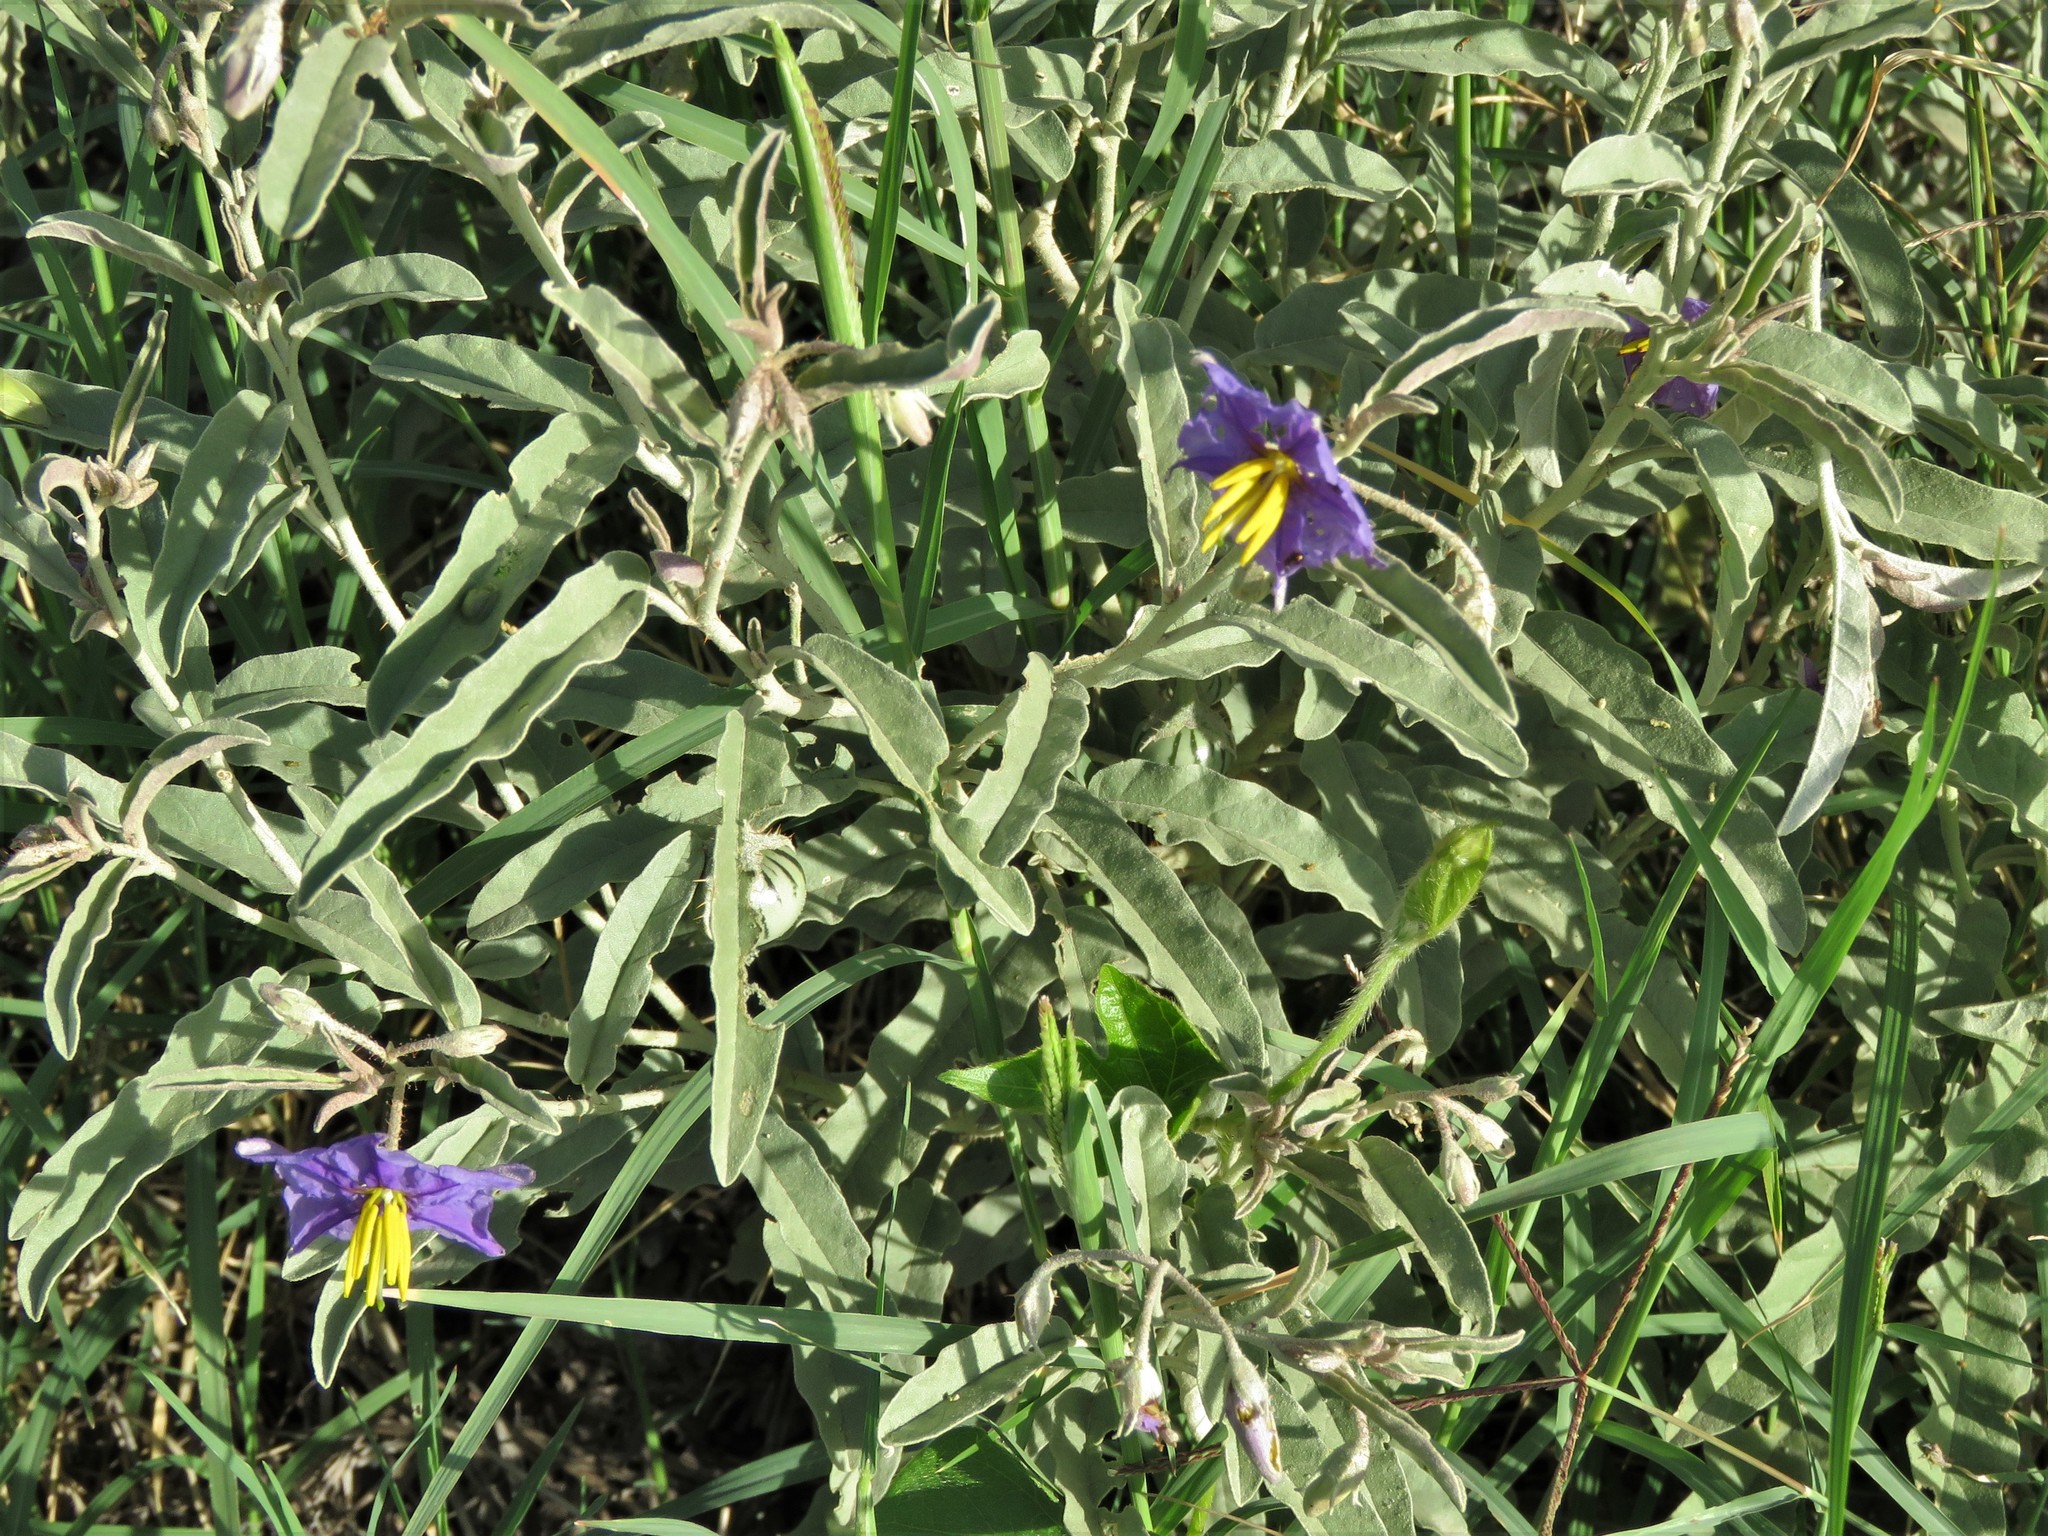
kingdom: Plantae
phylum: Tracheophyta
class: Magnoliopsida
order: Solanales
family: Solanaceae
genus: Solanum
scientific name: Solanum elaeagnifolium
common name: Silverleaf nightshade
